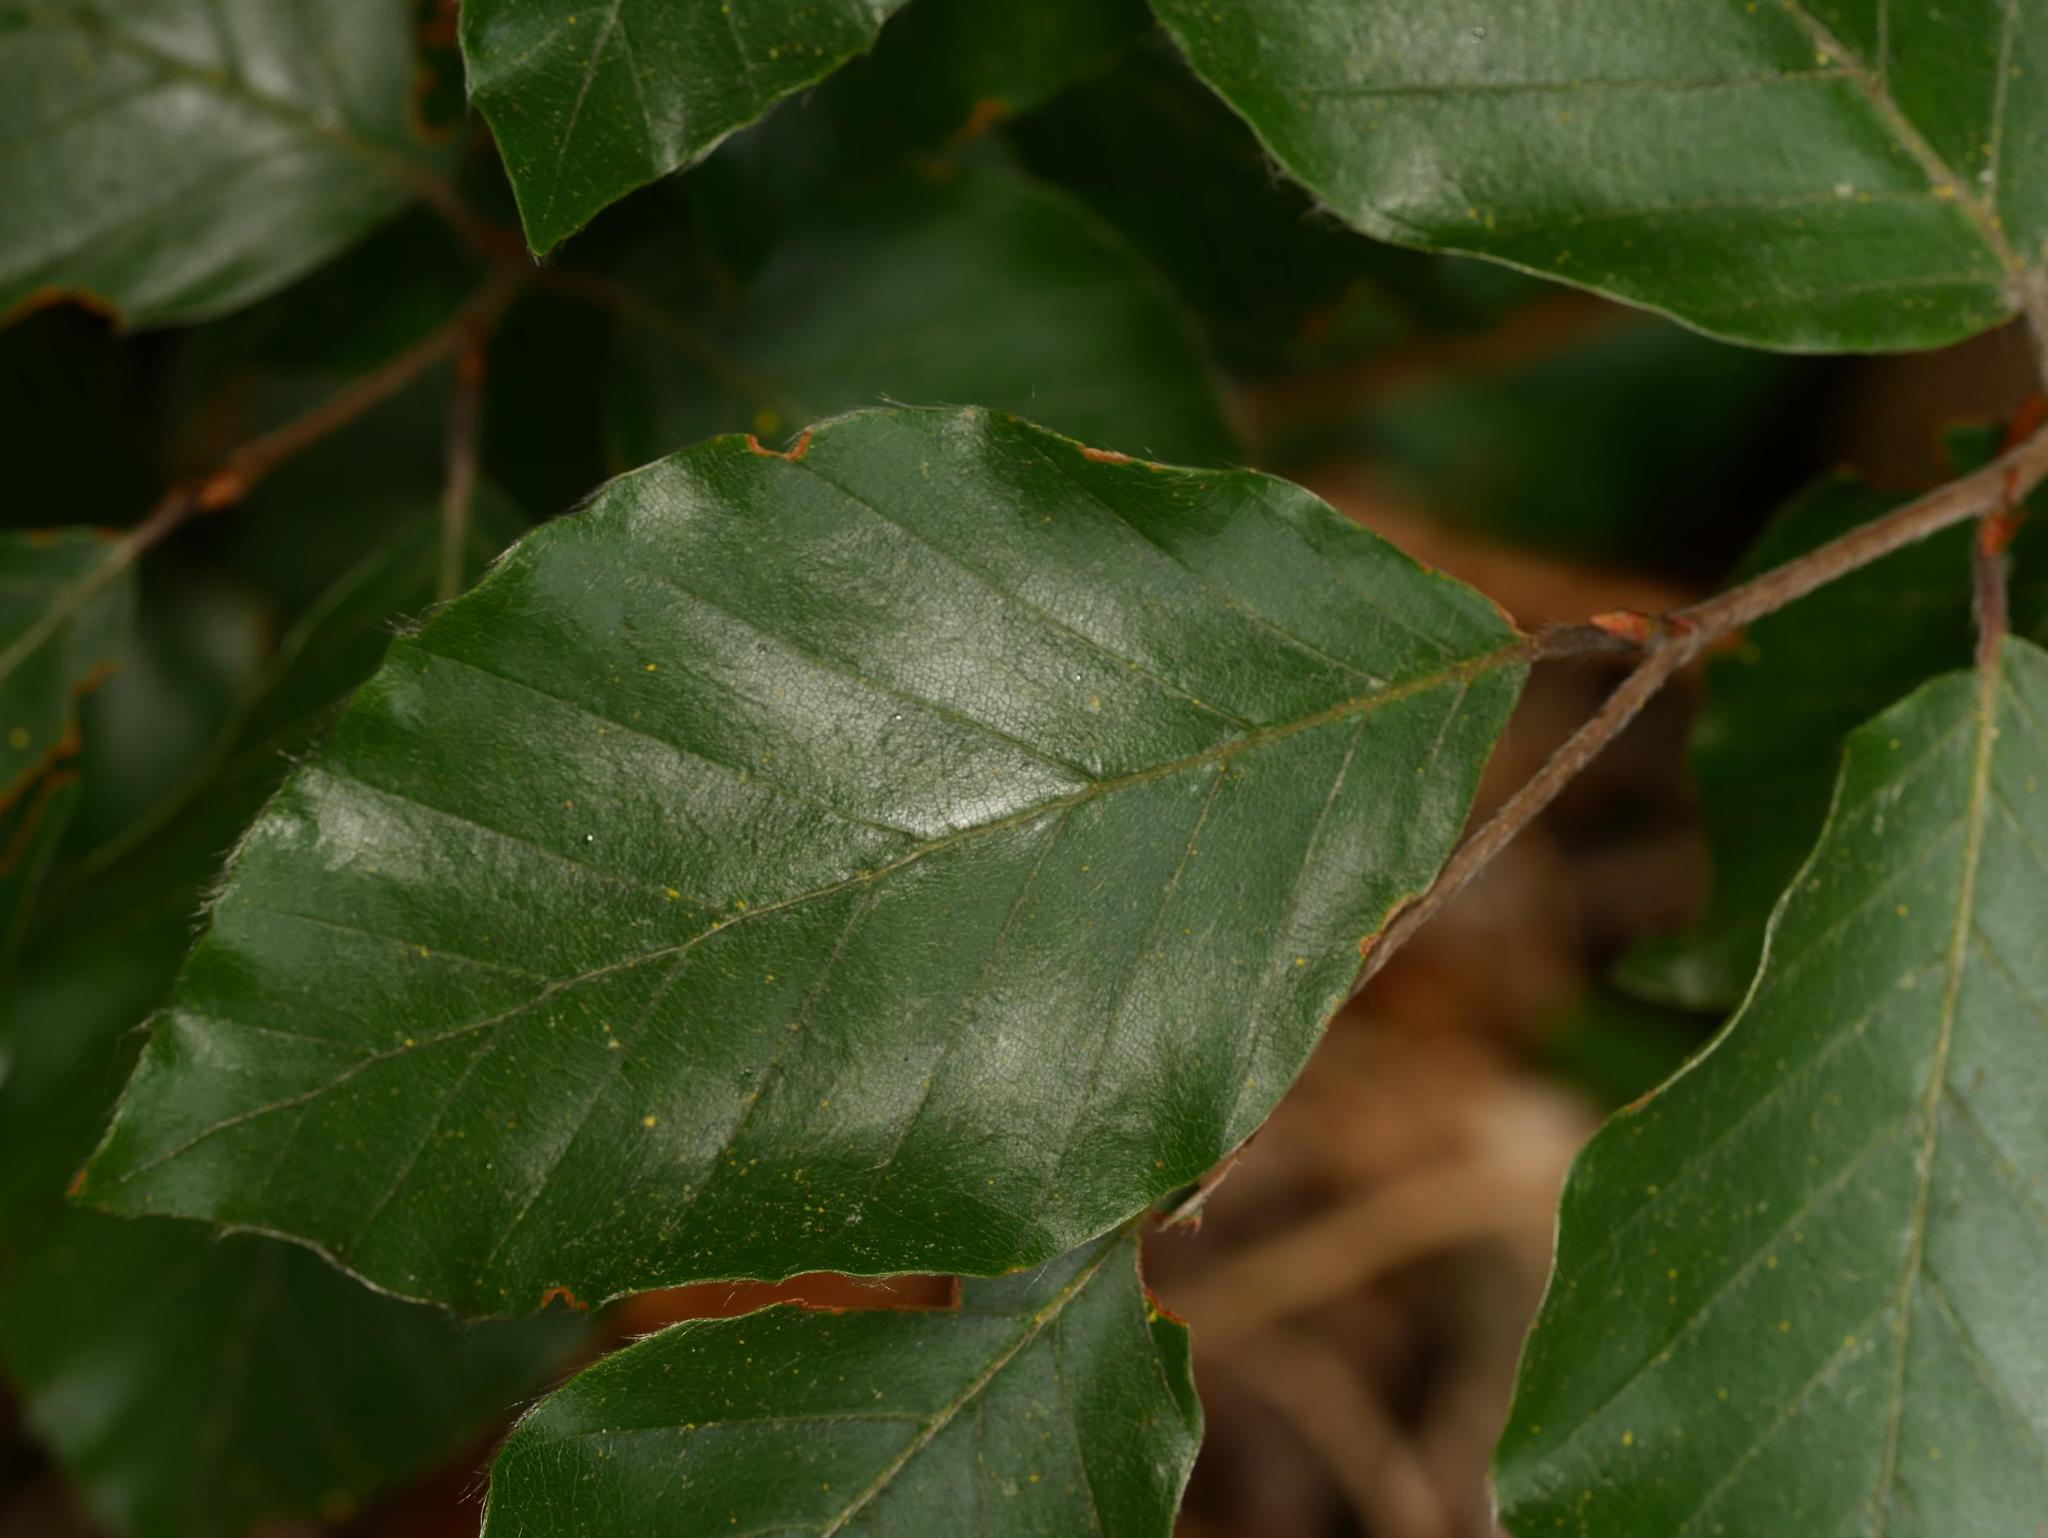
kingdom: Plantae
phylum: Tracheophyta
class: Magnoliopsida
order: Fagales
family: Fagaceae
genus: Fagus
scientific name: Fagus sylvatica
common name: Beech
